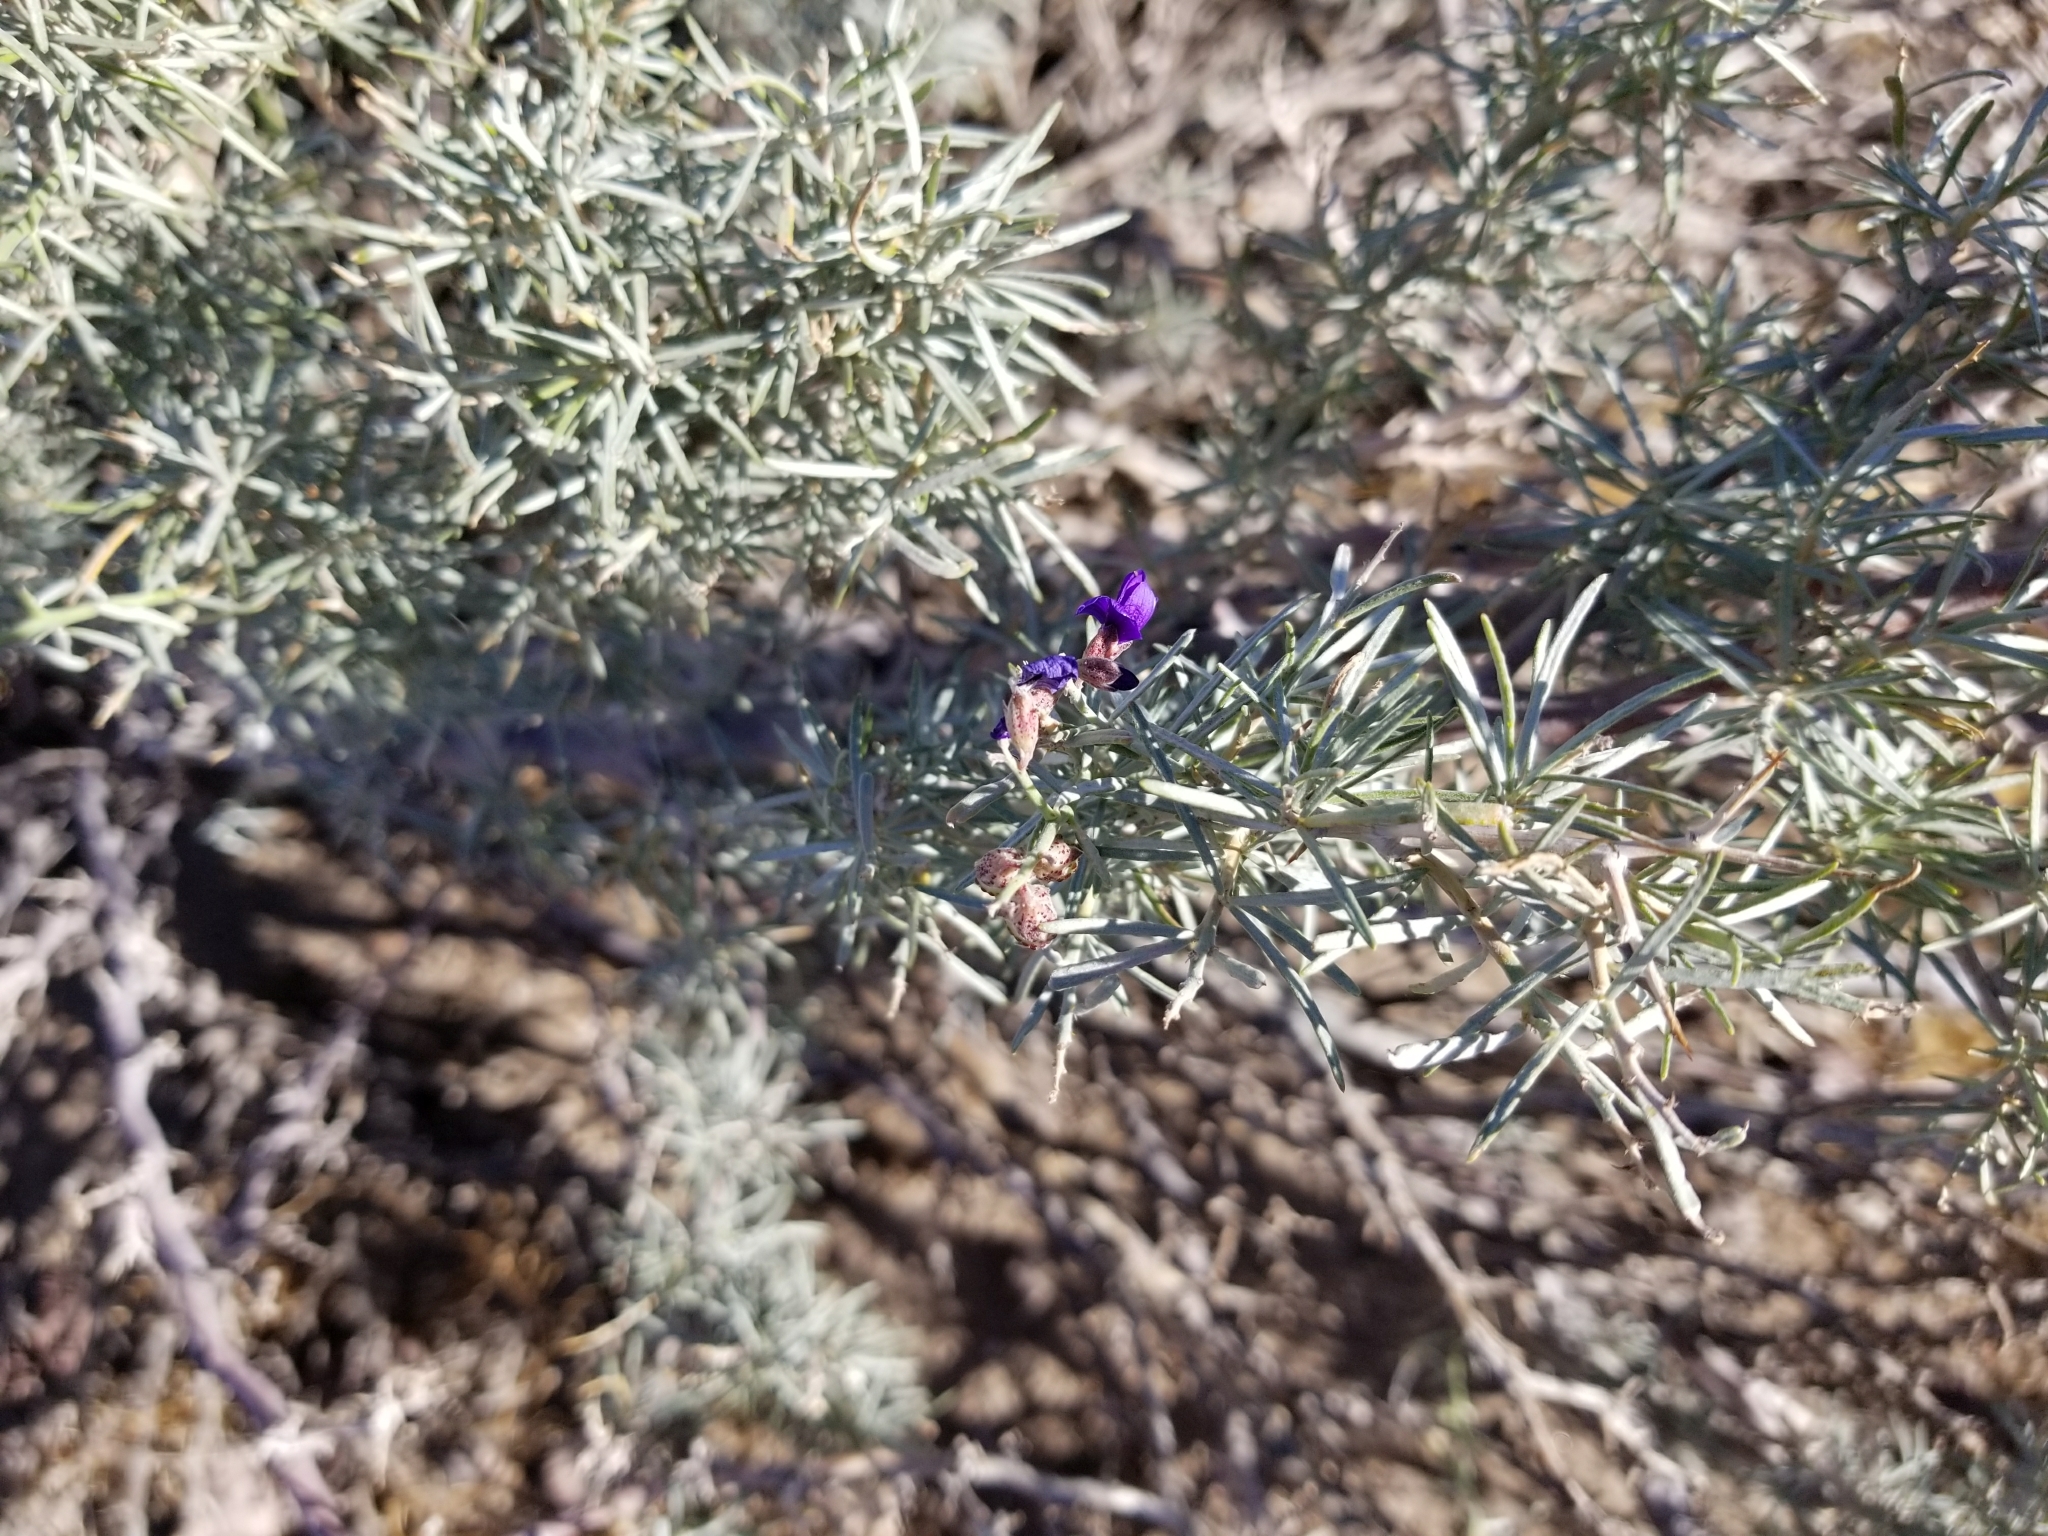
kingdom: Plantae
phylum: Tracheophyta
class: Magnoliopsida
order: Fabales
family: Fabaceae
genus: Psorothamnus
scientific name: Psorothamnus schottii
